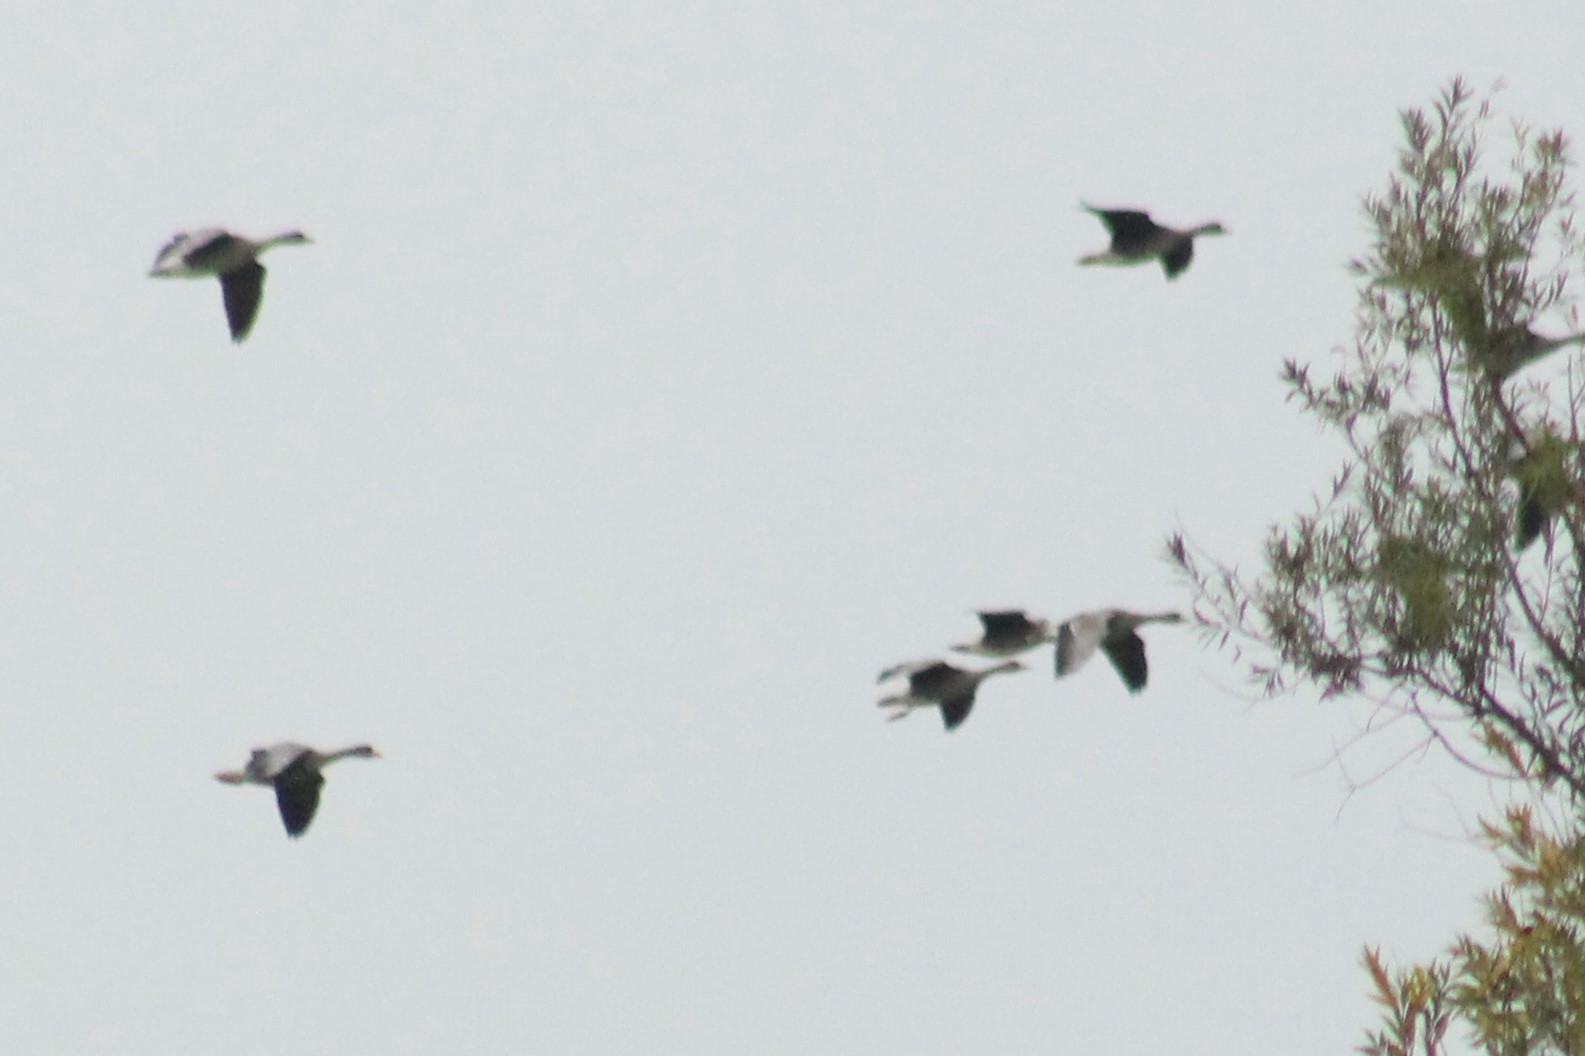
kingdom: Animalia
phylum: Chordata
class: Aves
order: Anseriformes
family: Anatidae
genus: Anser
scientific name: Anser albifrons
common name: Greater white-fronted goose
